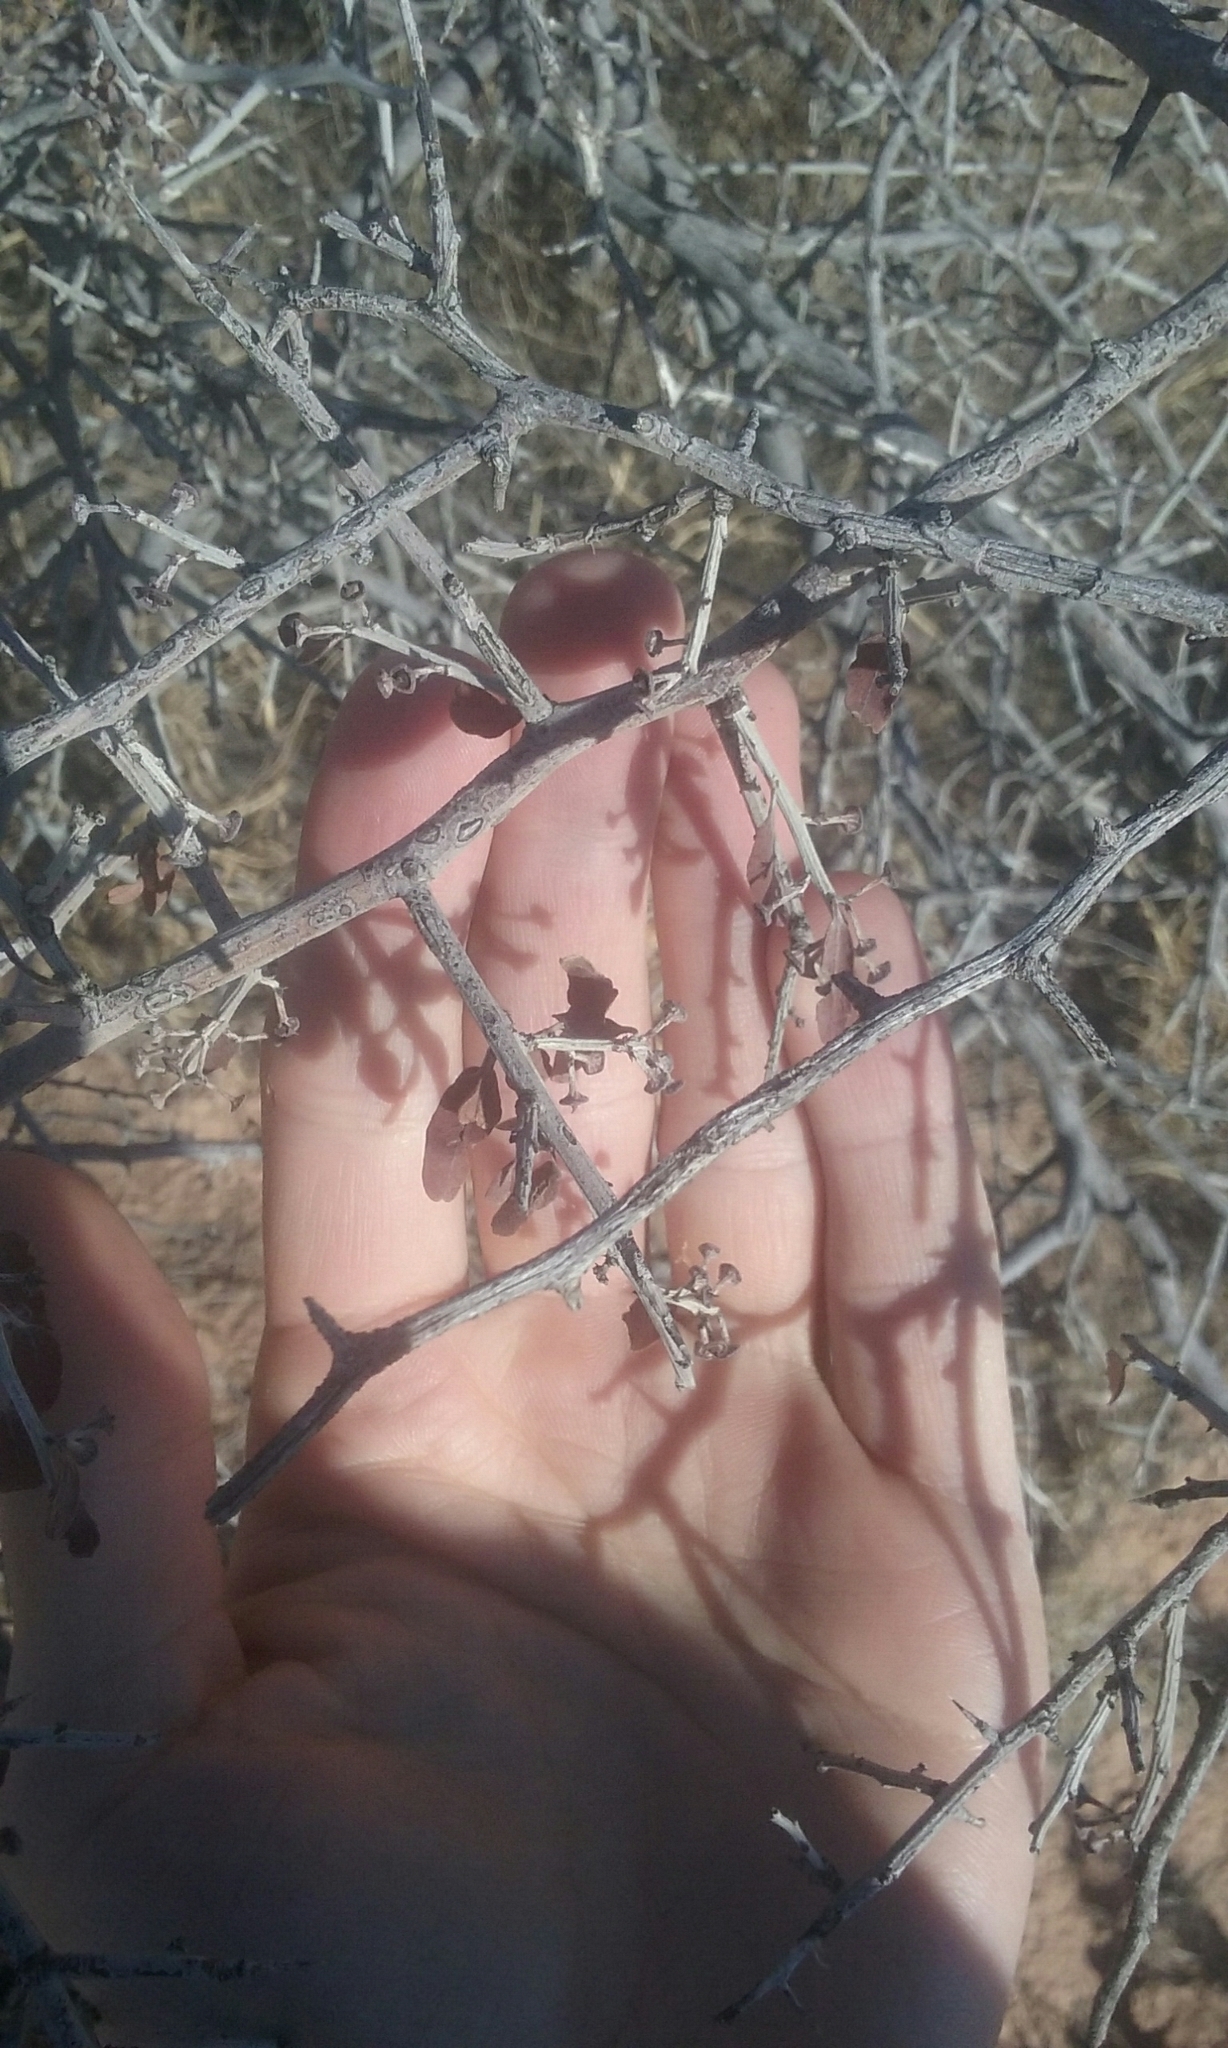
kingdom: Plantae
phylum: Tracheophyta
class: Magnoliopsida
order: Rosales
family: Rhamnaceae
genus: Sarcomphalus
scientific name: Sarcomphalus obtusifolius
